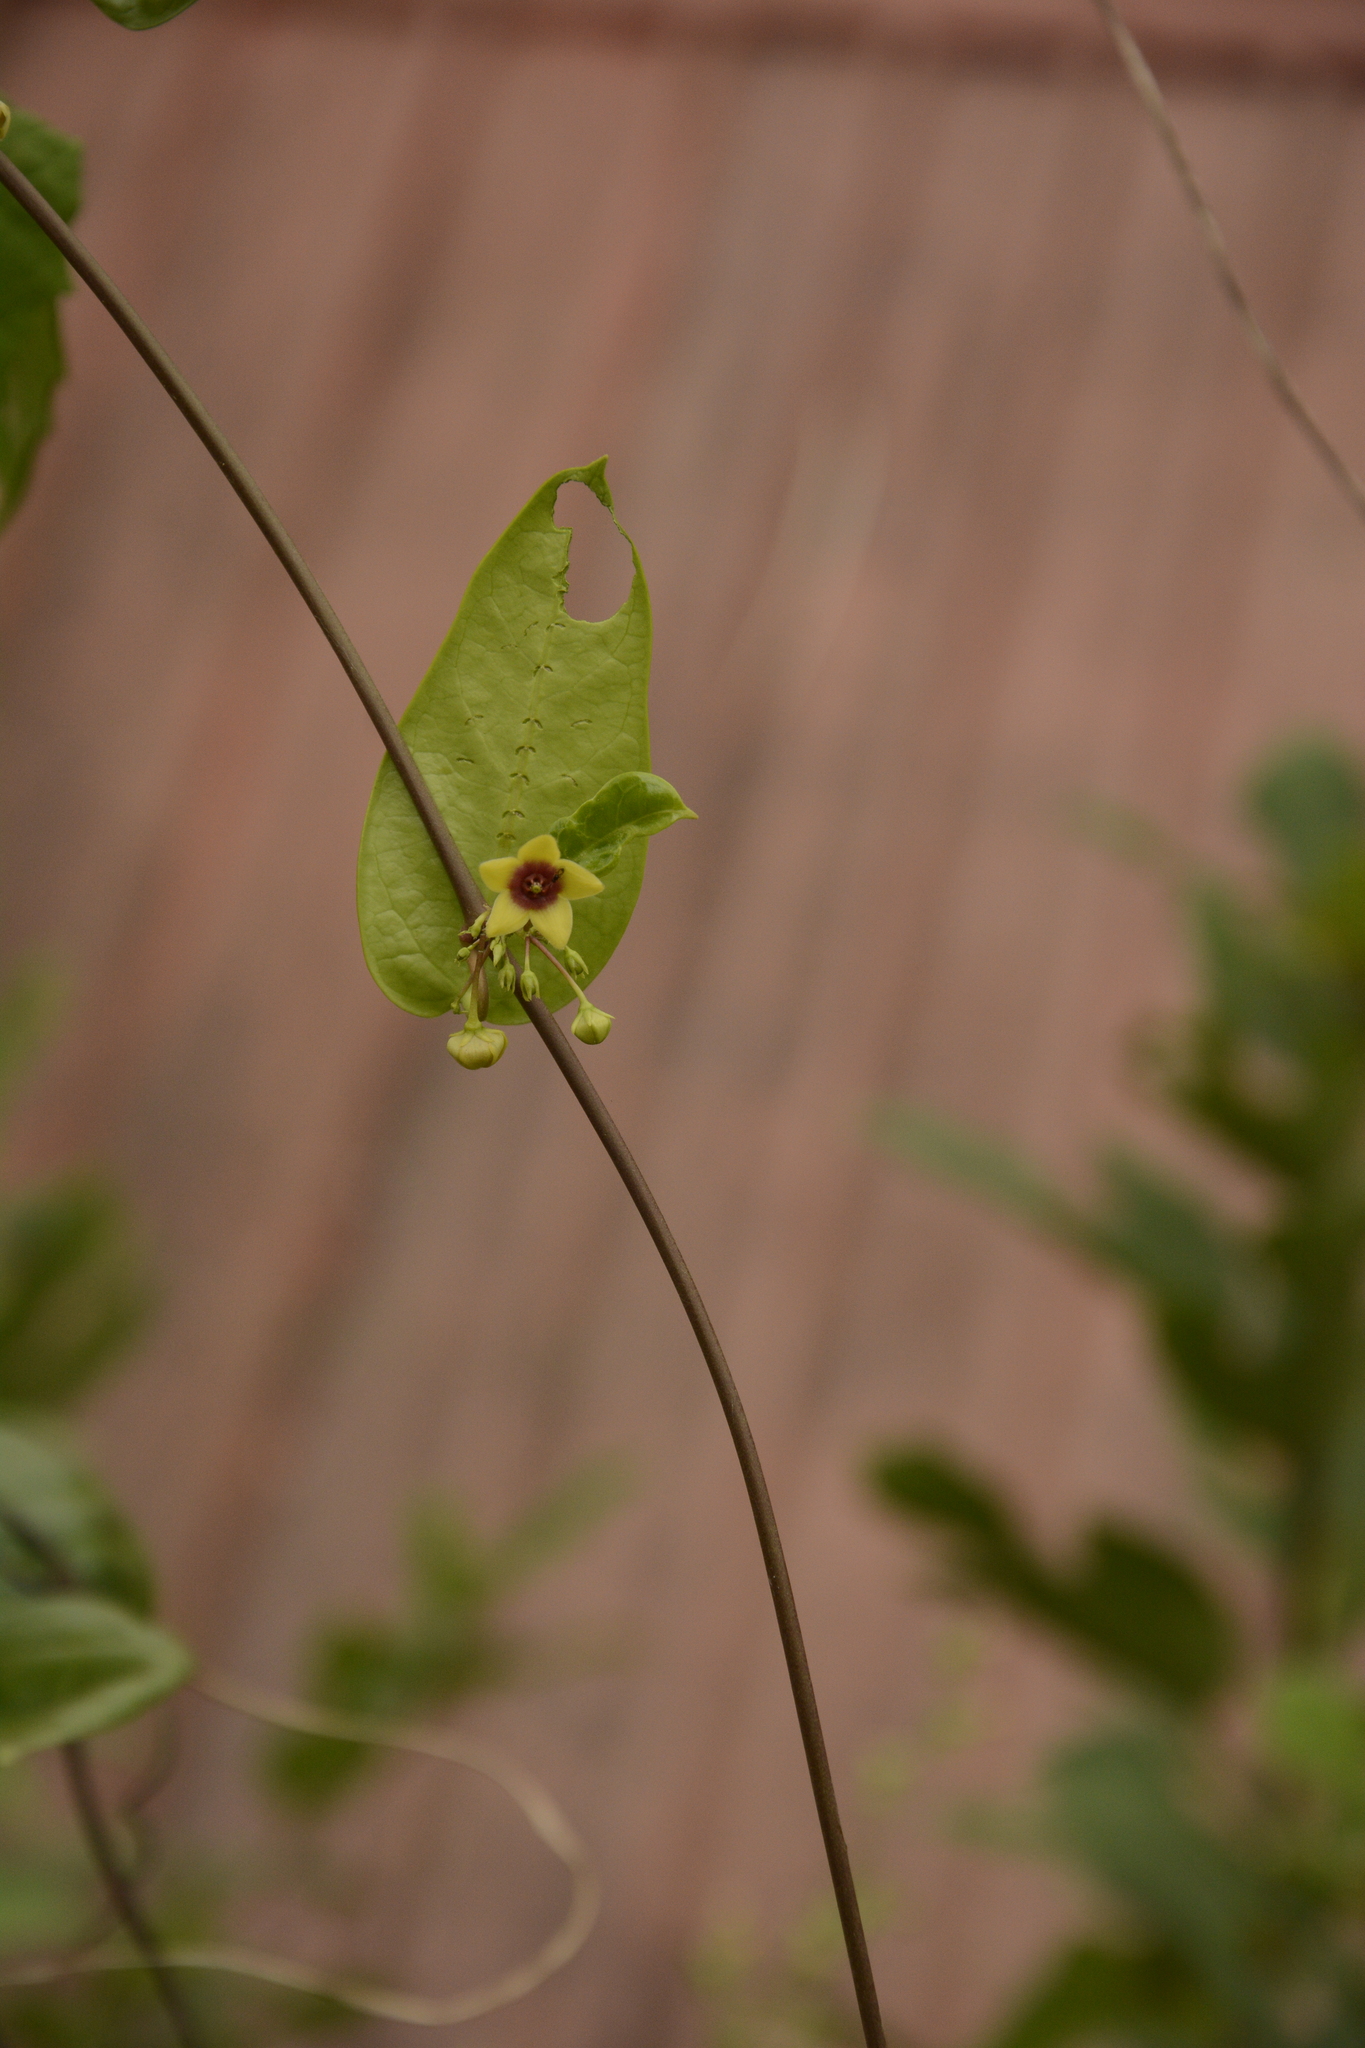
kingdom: Plantae
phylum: Tracheophyta
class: Magnoliopsida
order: Gentianales
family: Apocynaceae
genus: Vincetoxicum
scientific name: Vincetoxicum indicum
